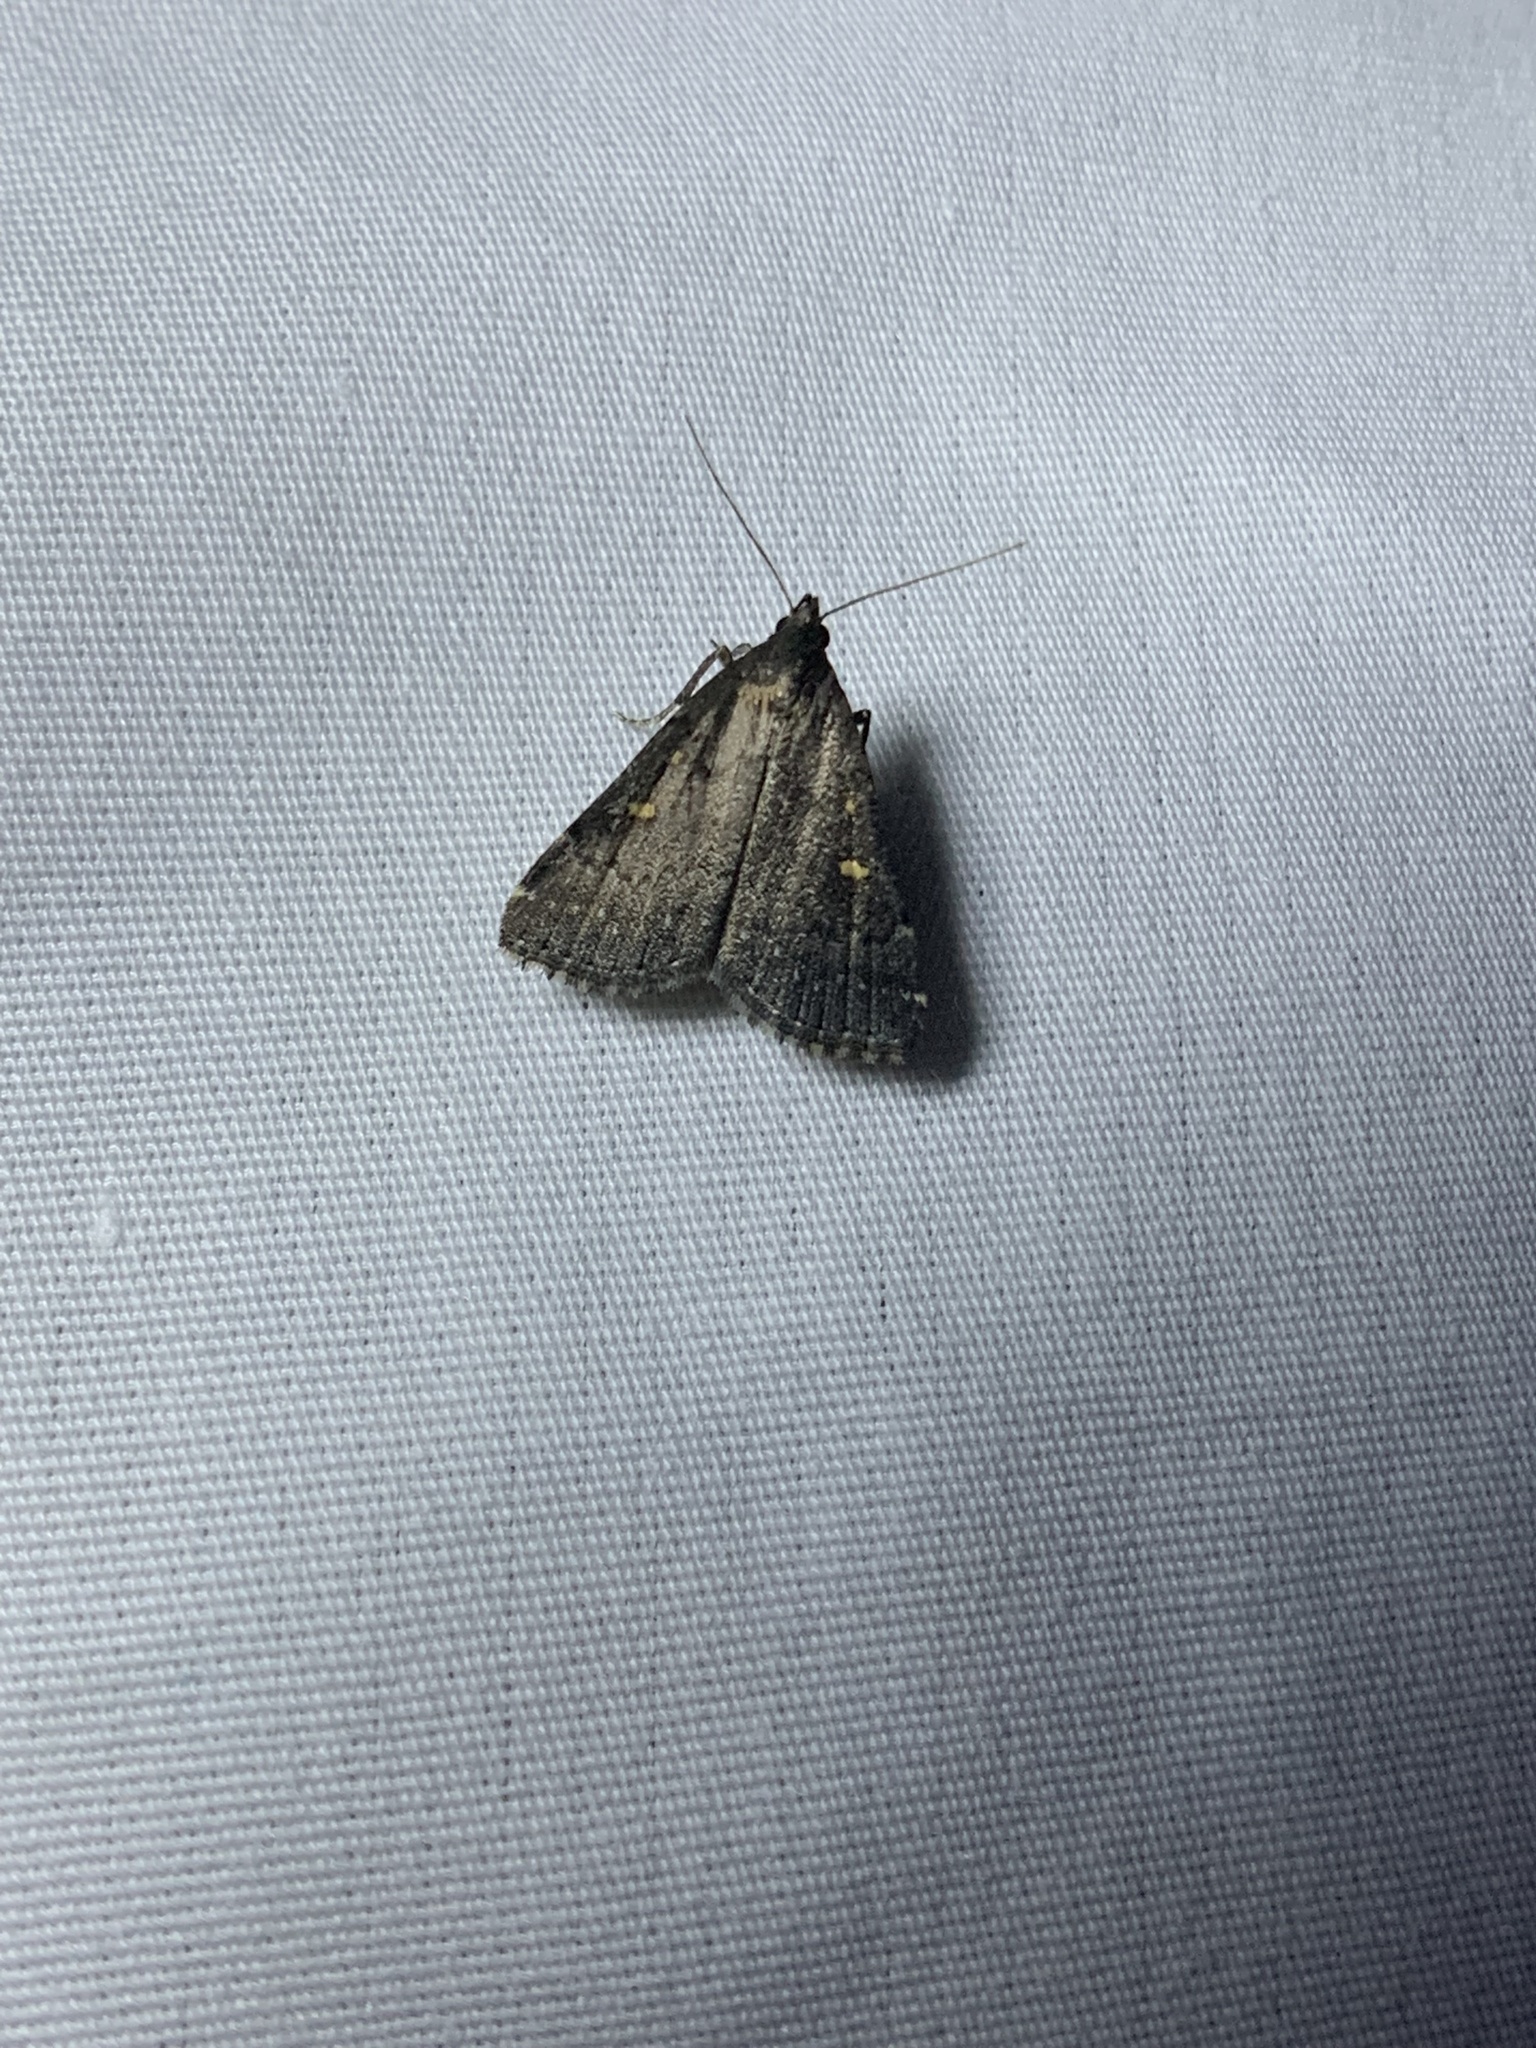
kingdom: Animalia
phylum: Arthropoda
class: Insecta
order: Lepidoptera
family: Erebidae
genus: Tetanolita
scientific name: Tetanolita mynesalis
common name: Smoky tetanolita moth
